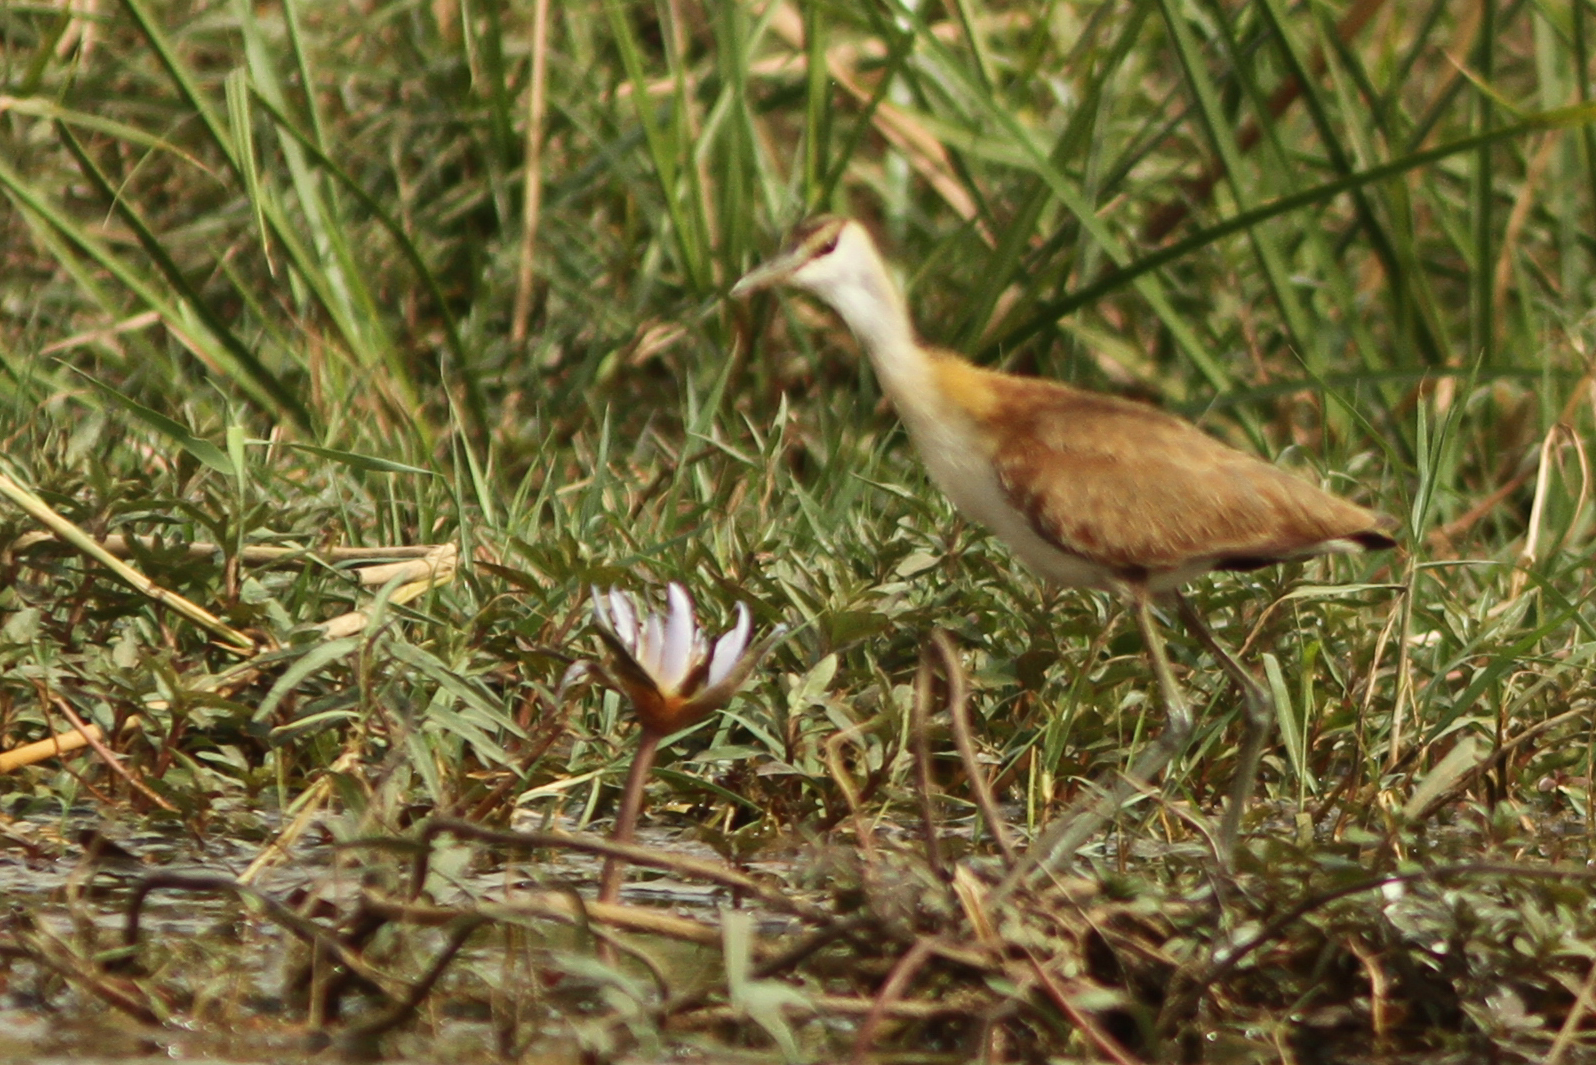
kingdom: Animalia
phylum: Chordata
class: Aves
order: Charadriiformes
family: Jacanidae
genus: Actophilornis
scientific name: Actophilornis africanus
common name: African jacana
